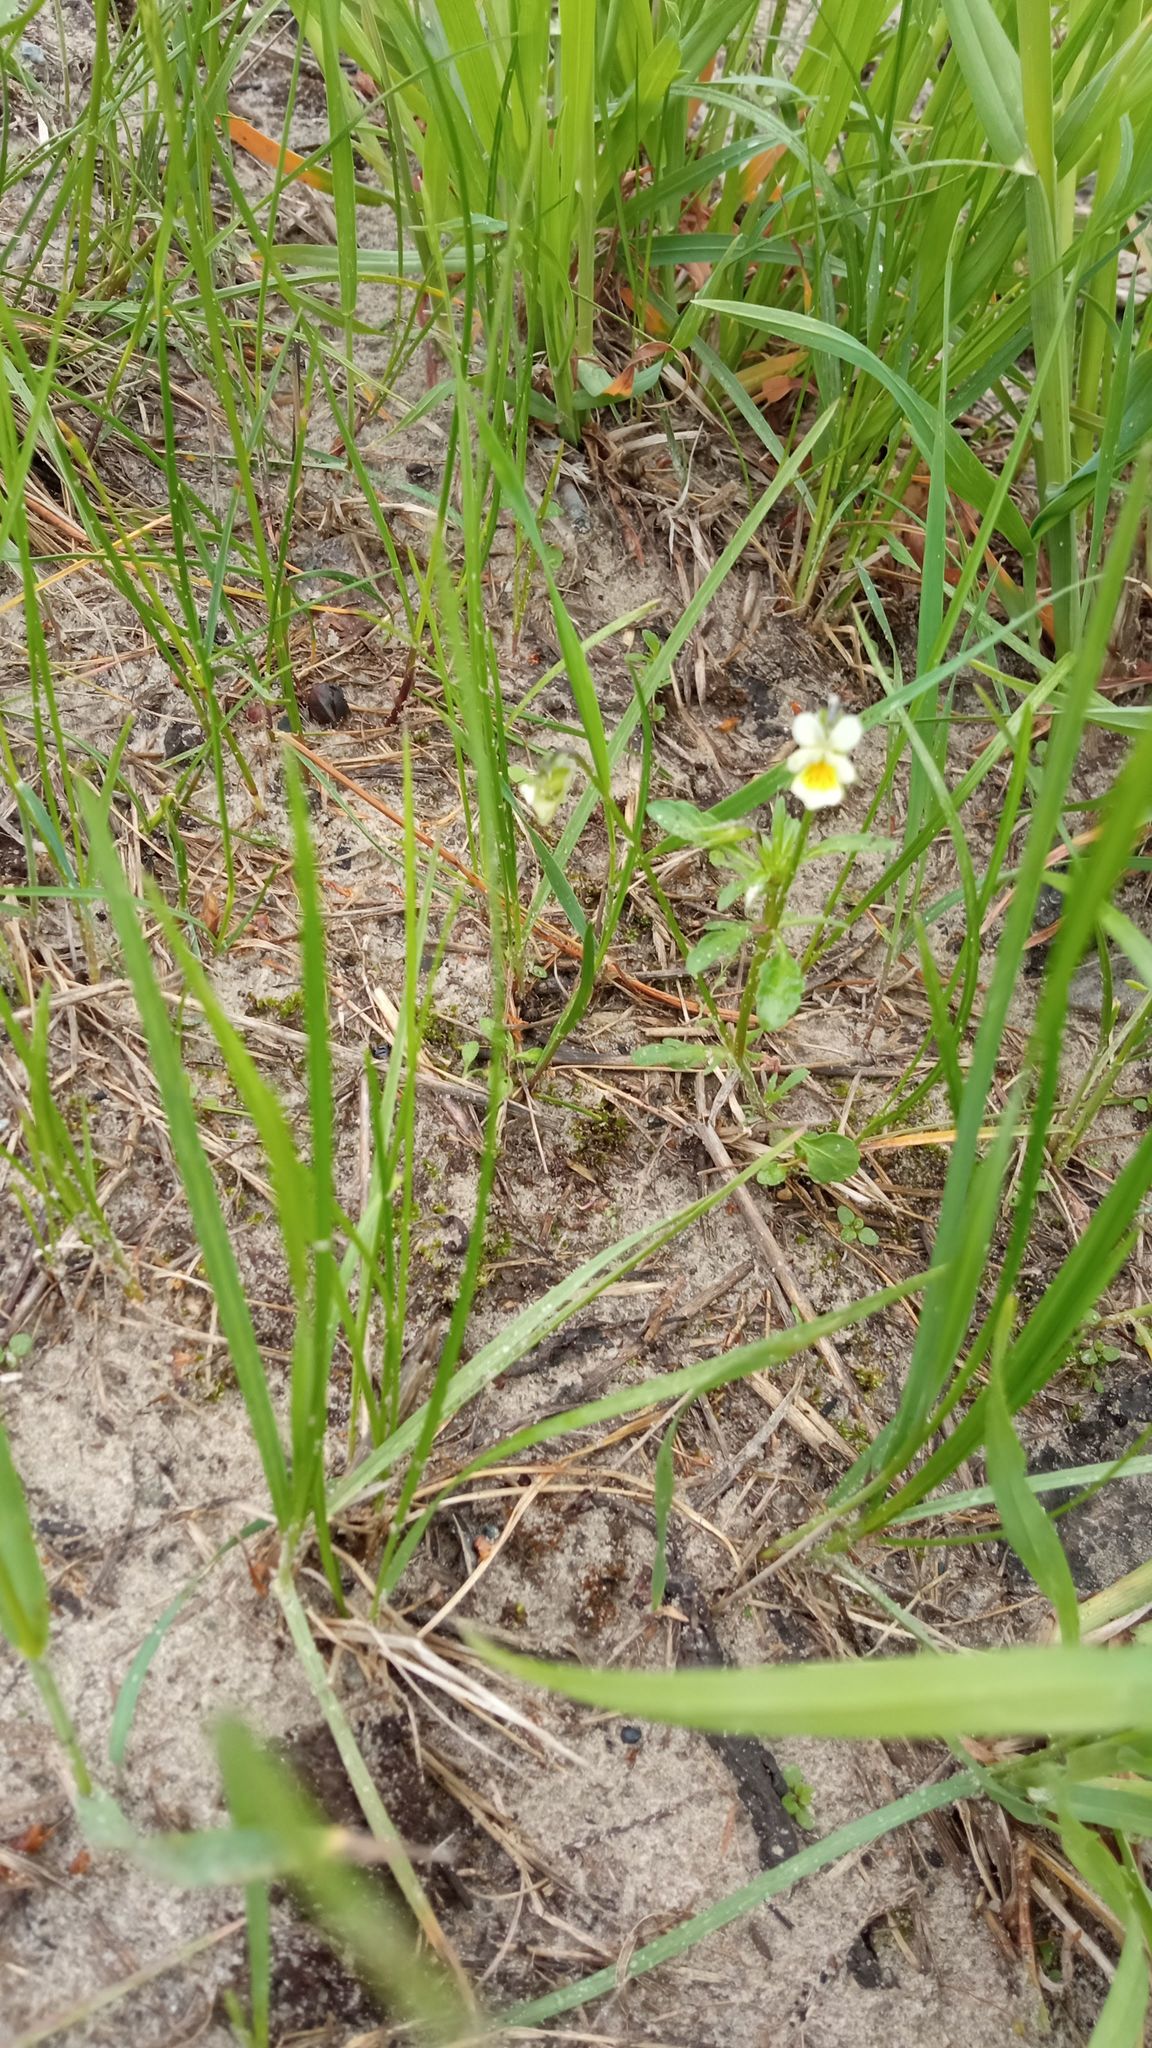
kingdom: Plantae
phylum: Tracheophyta
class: Magnoliopsida
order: Malpighiales
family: Violaceae
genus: Viola
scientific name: Viola arvensis
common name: Field pansy
